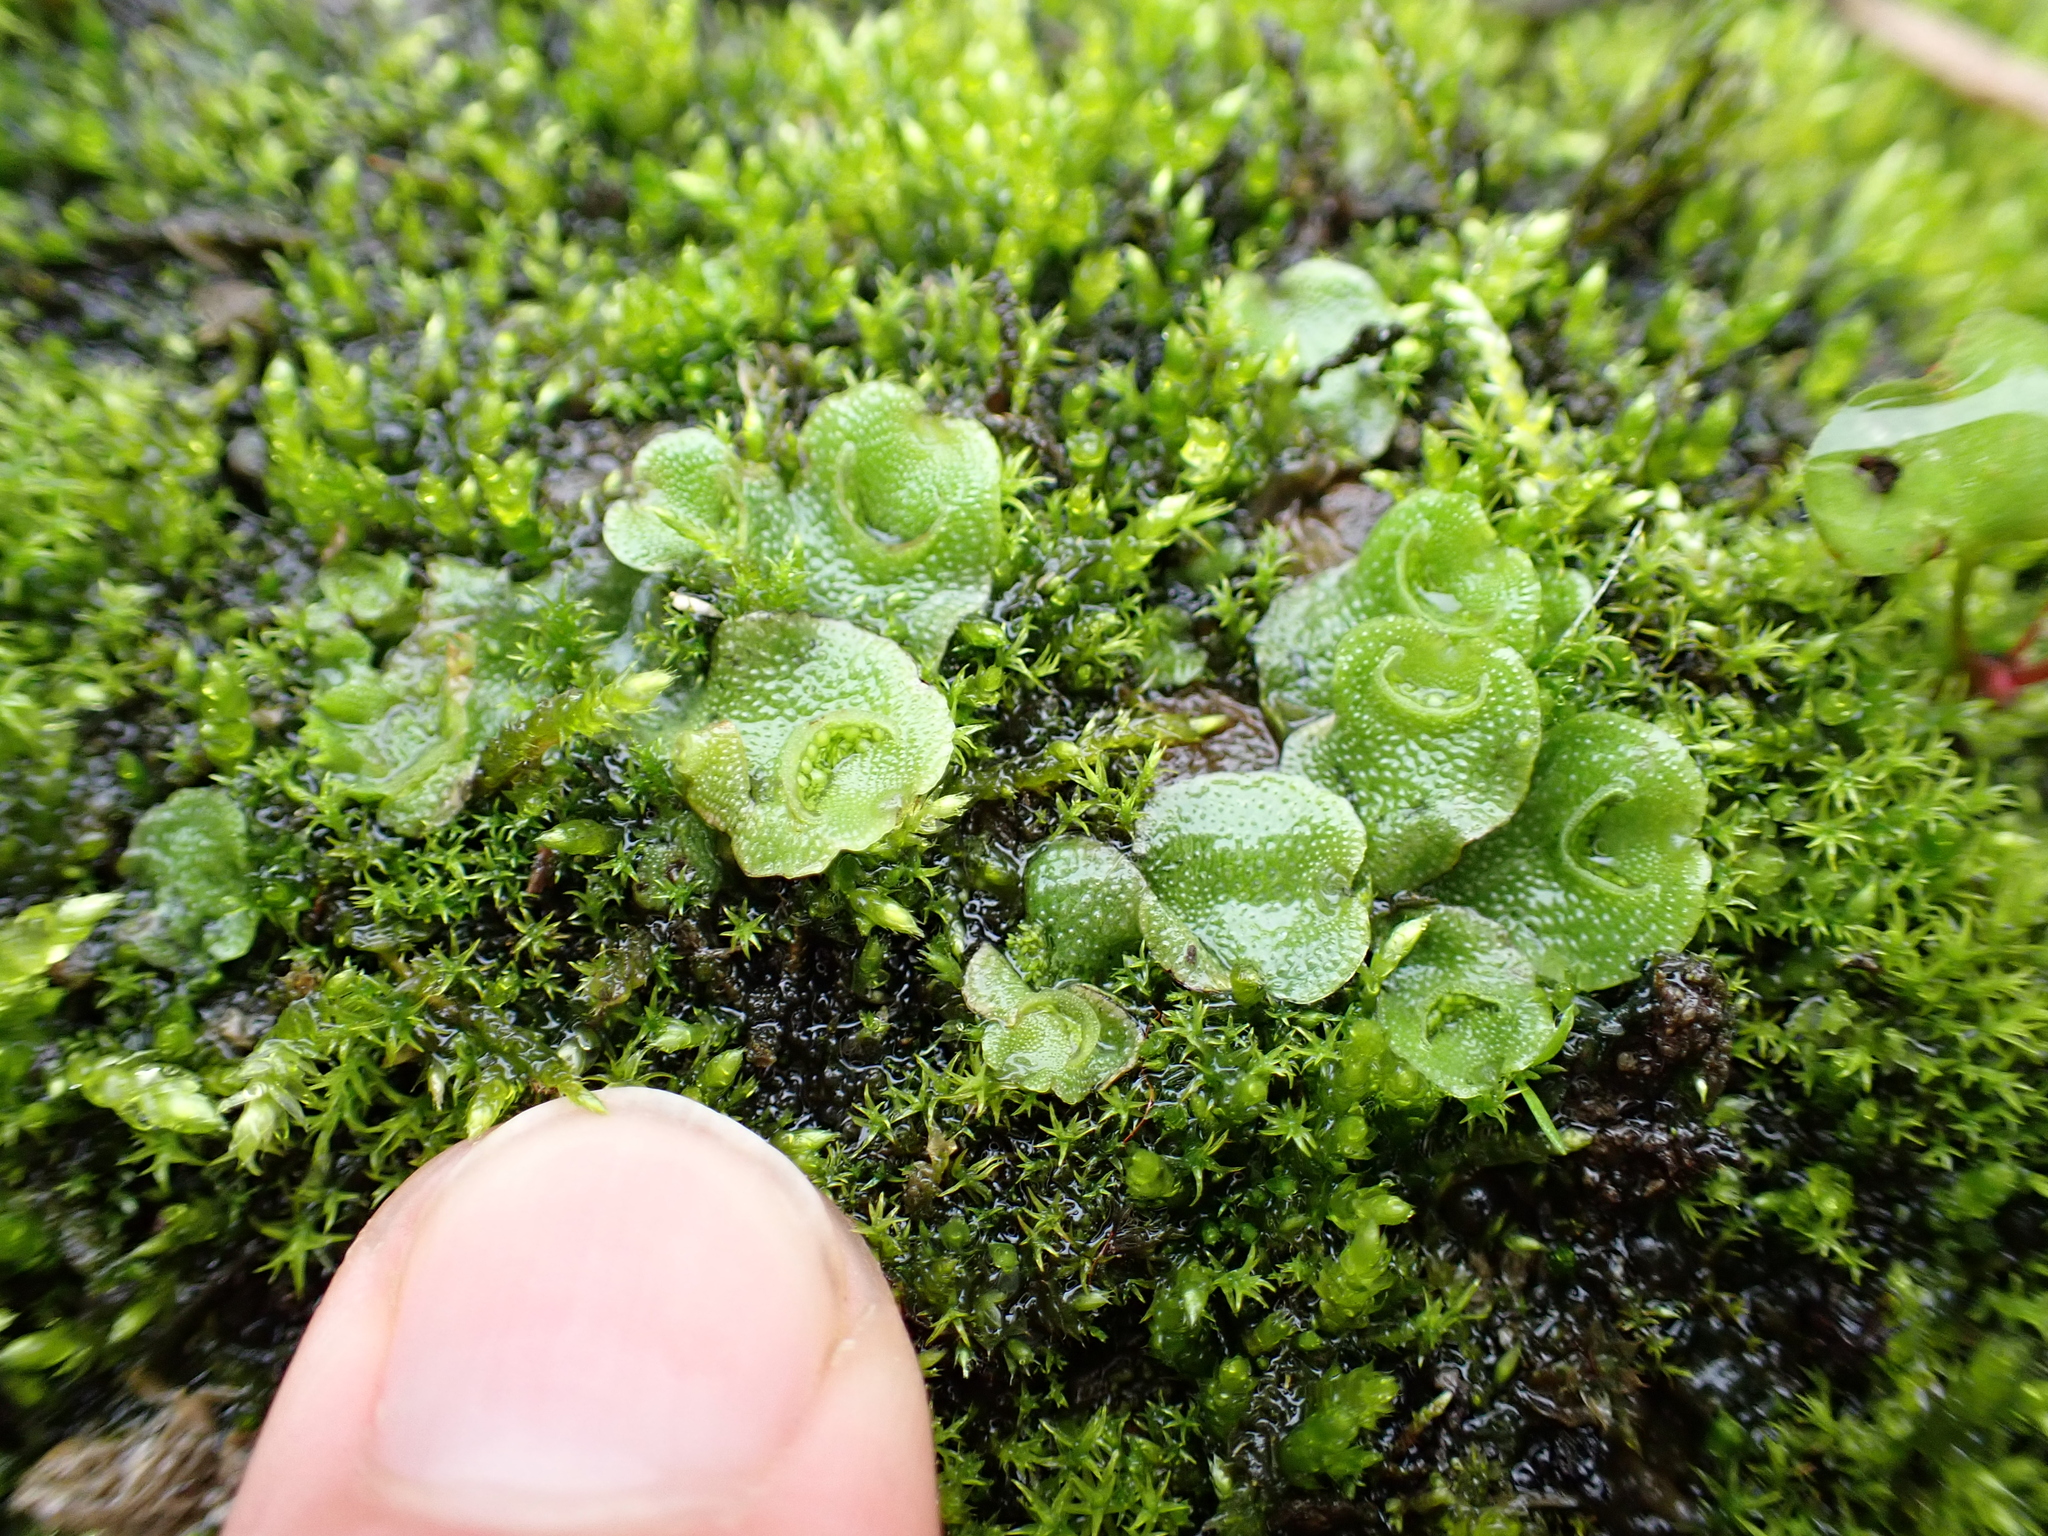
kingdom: Plantae
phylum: Marchantiophyta
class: Marchantiopsida
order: Lunulariales
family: Lunulariaceae
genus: Lunularia
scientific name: Lunularia cruciata
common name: Crescent-cup liverwort
